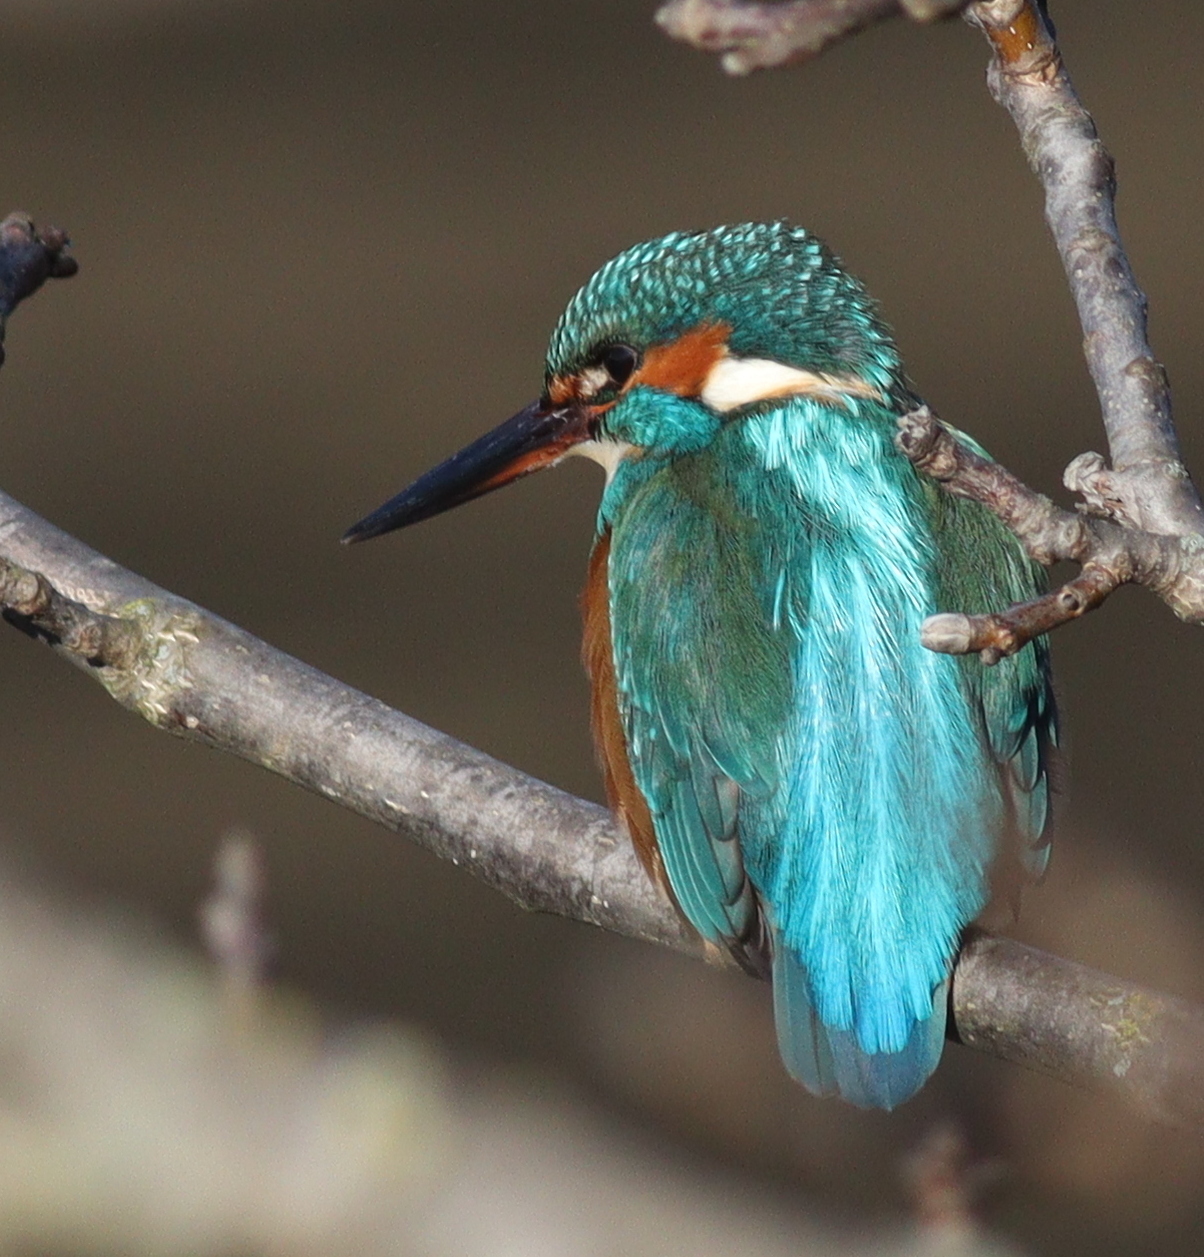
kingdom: Animalia
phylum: Chordata
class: Aves
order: Coraciiformes
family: Alcedinidae
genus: Alcedo
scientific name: Alcedo atthis
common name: Common kingfisher
